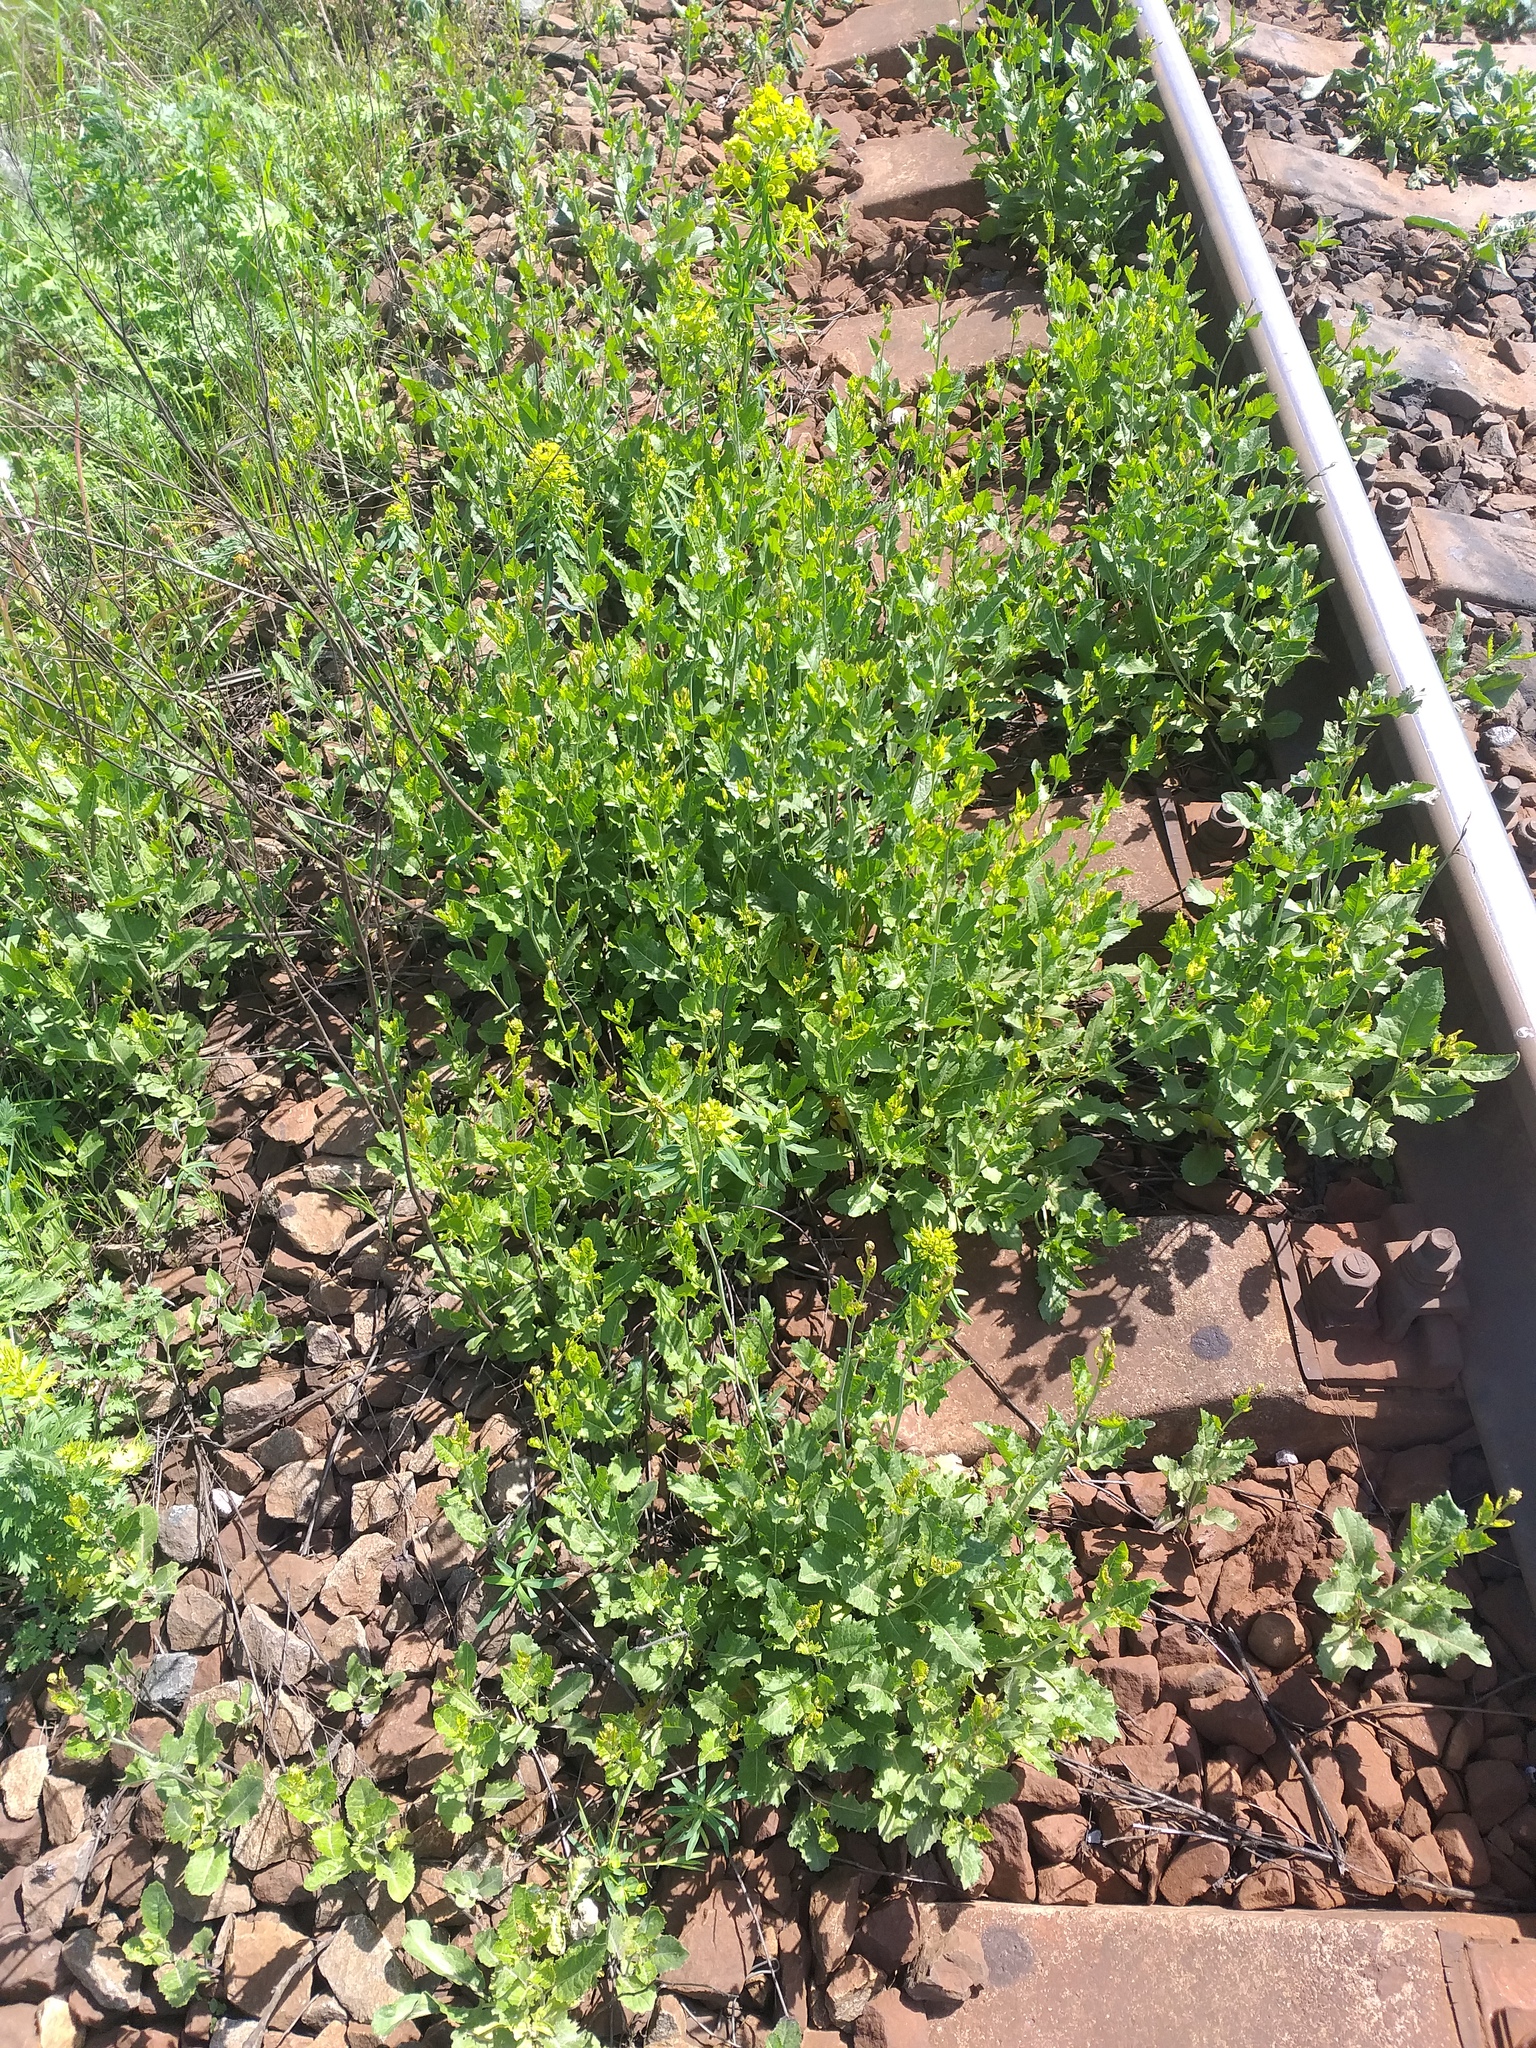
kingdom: Plantae
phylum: Tracheophyta
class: Magnoliopsida
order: Brassicales
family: Brassicaceae
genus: Sisymbrium
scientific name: Sisymbrium volgense
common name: Russian mustard
